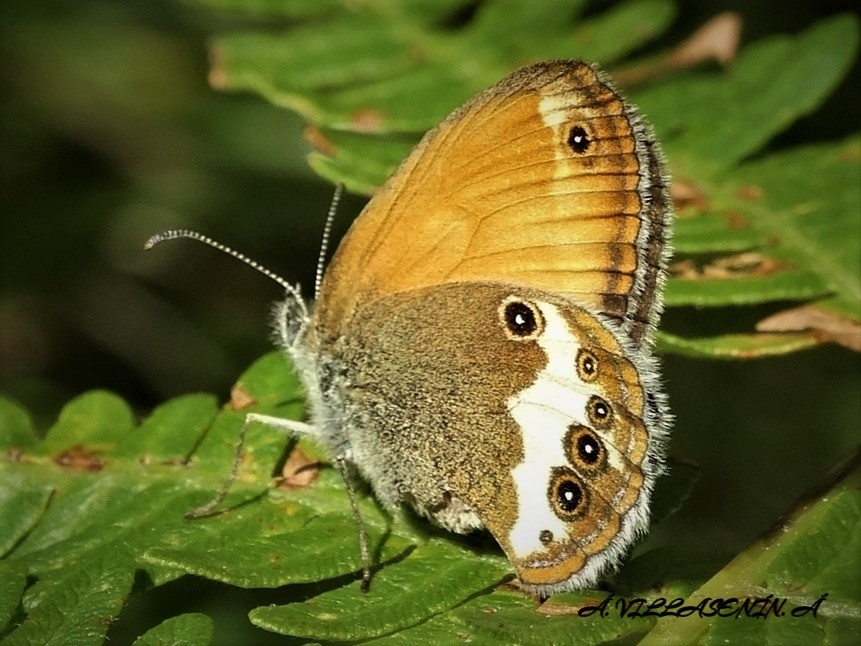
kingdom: Animalia
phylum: Arthropoda
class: Insecta
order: Lepidoptera
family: Nymphalidae
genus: Coenonympha
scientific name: Coenonympha arcania
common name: Pearly heath
